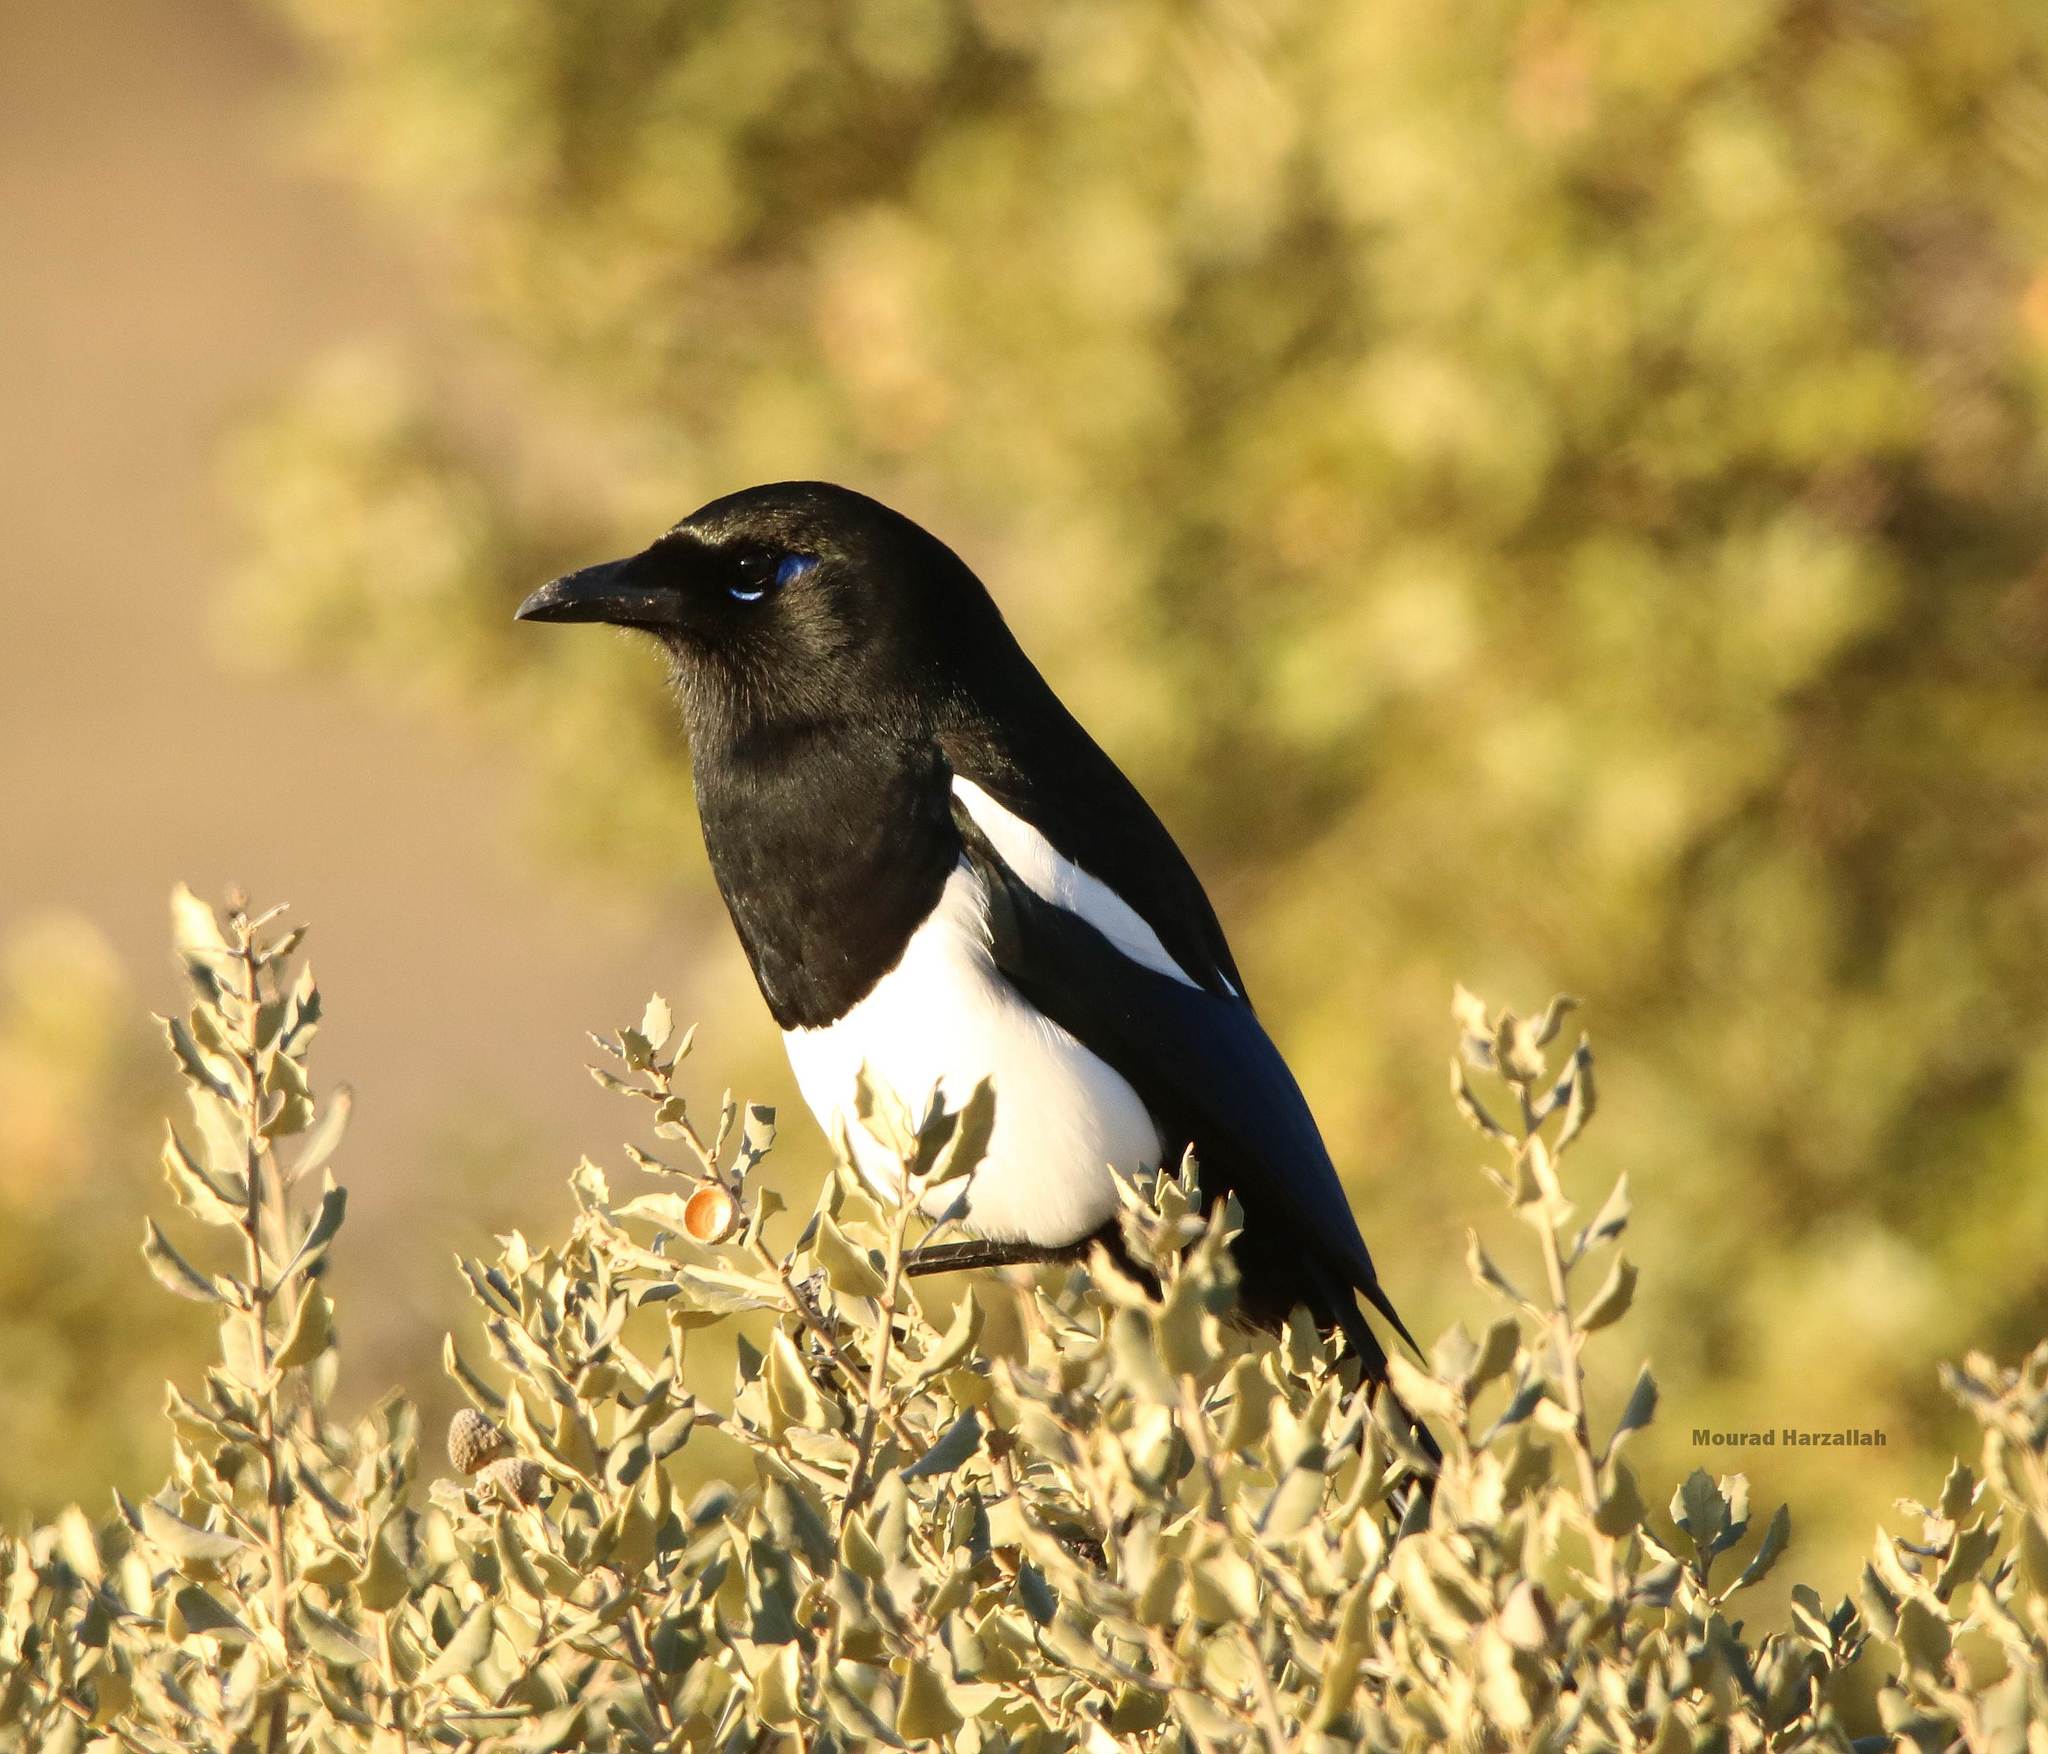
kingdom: Animalia
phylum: Chordata
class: Aves
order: Passeriformes
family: Corvidae
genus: Pica
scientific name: Pica mauritanica
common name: Maghreb magpie
